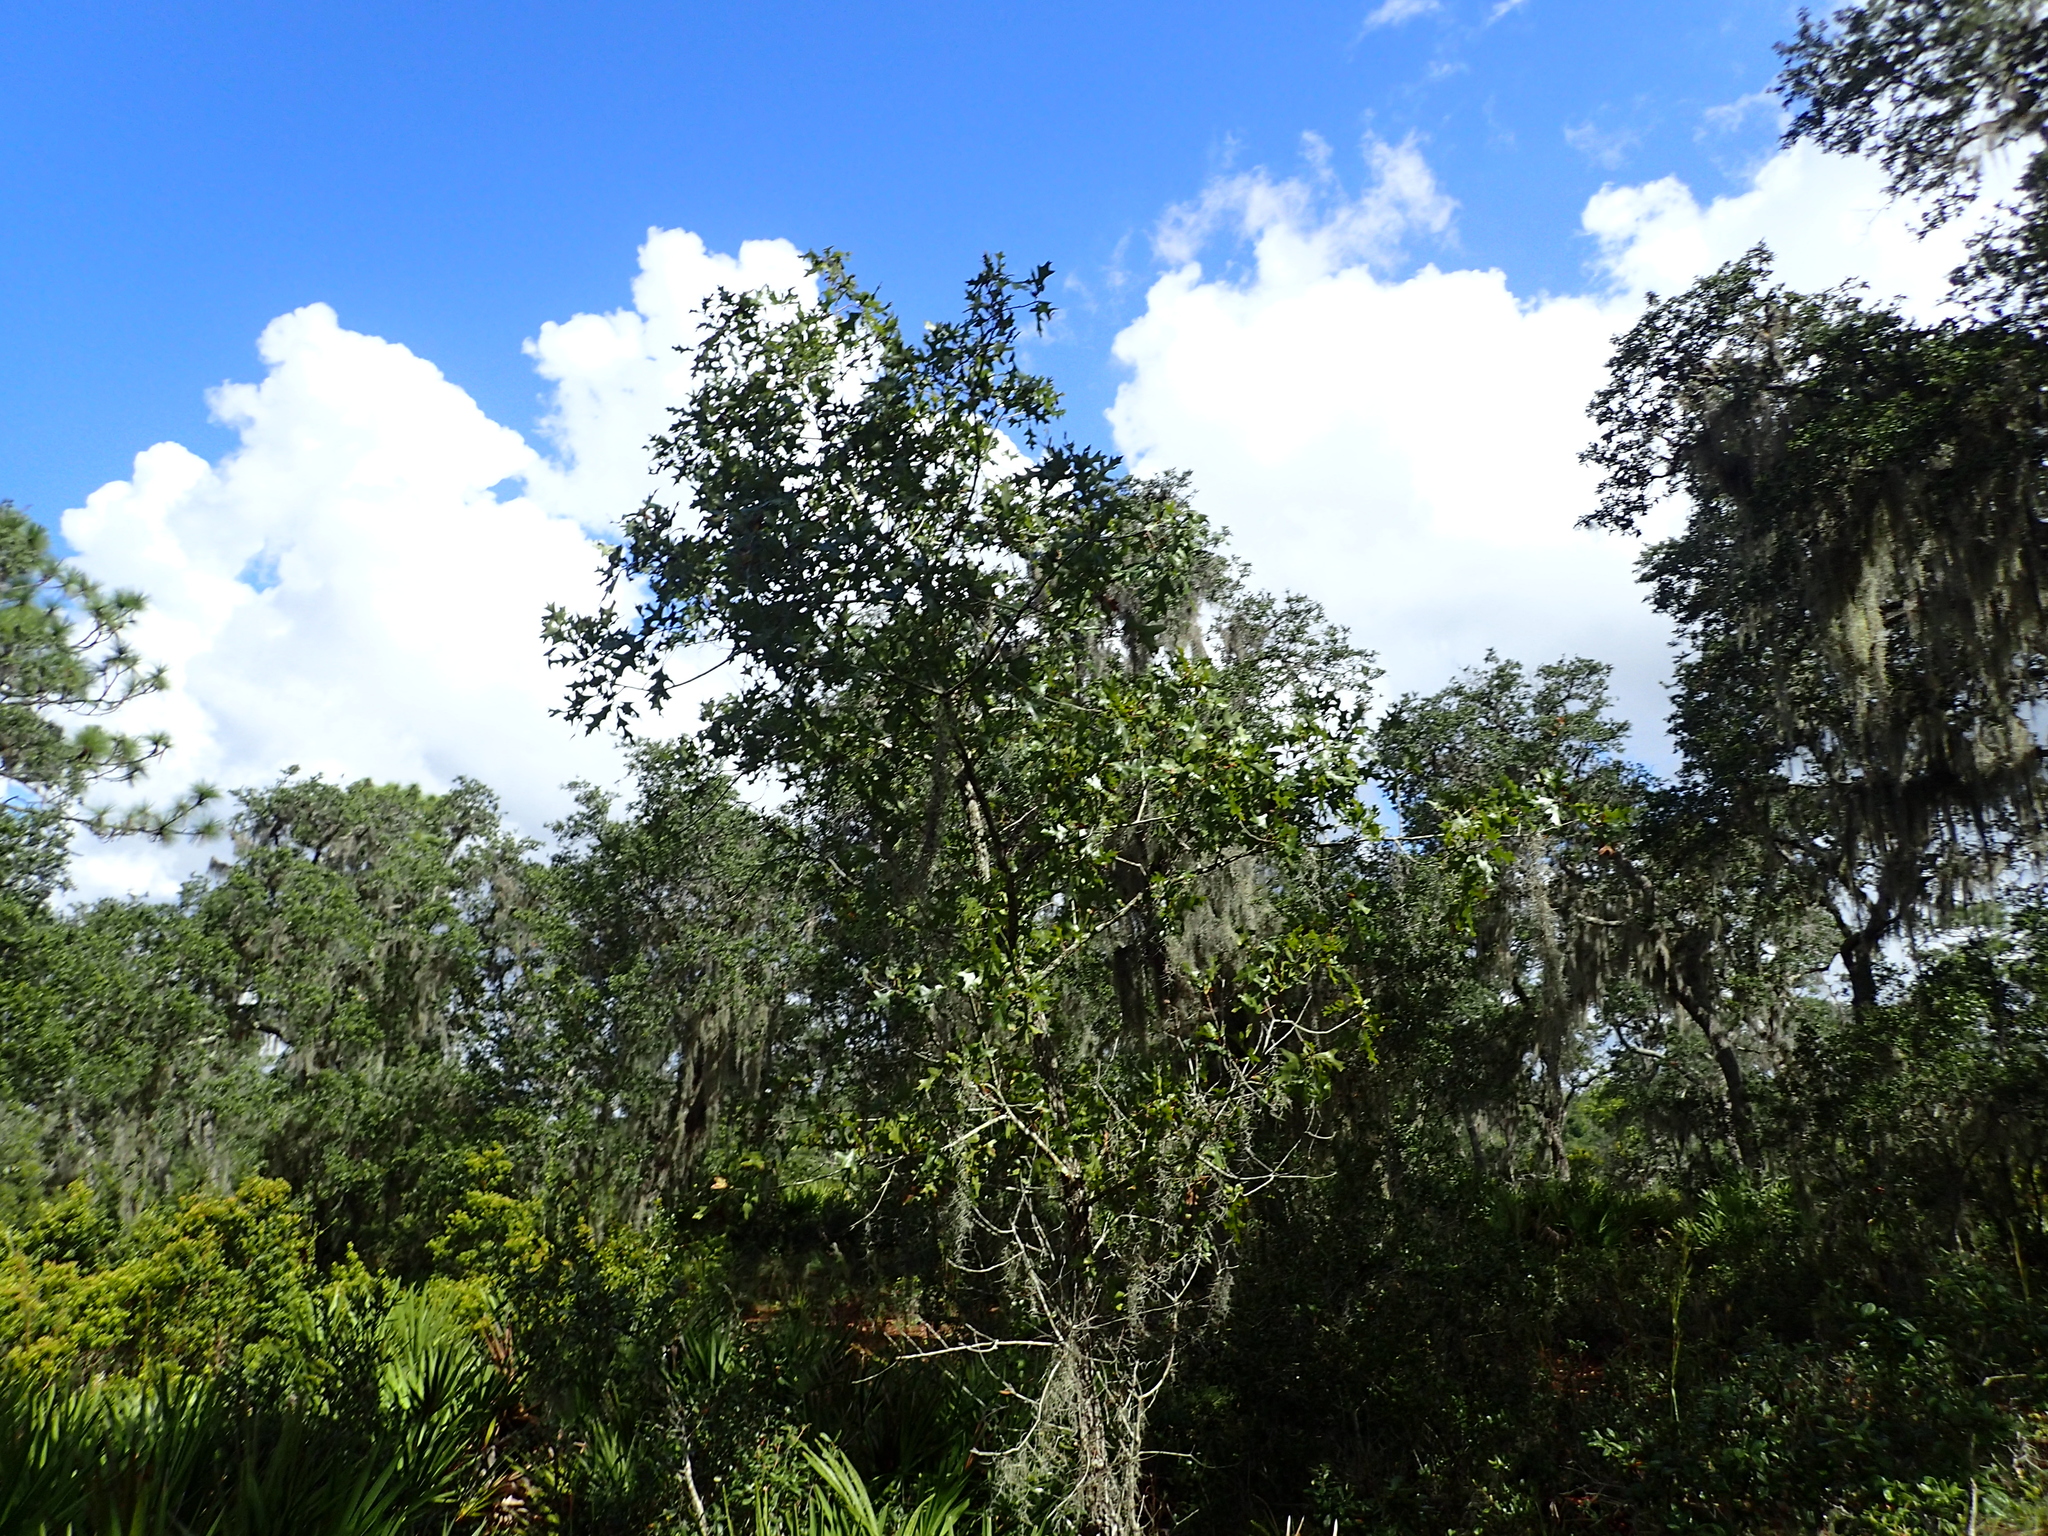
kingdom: Plantae
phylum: Tracheophyta
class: Magnoliopsida
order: Fagales
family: Fagaceae
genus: Quercus
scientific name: Quercus laevis
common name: Turkey oak
